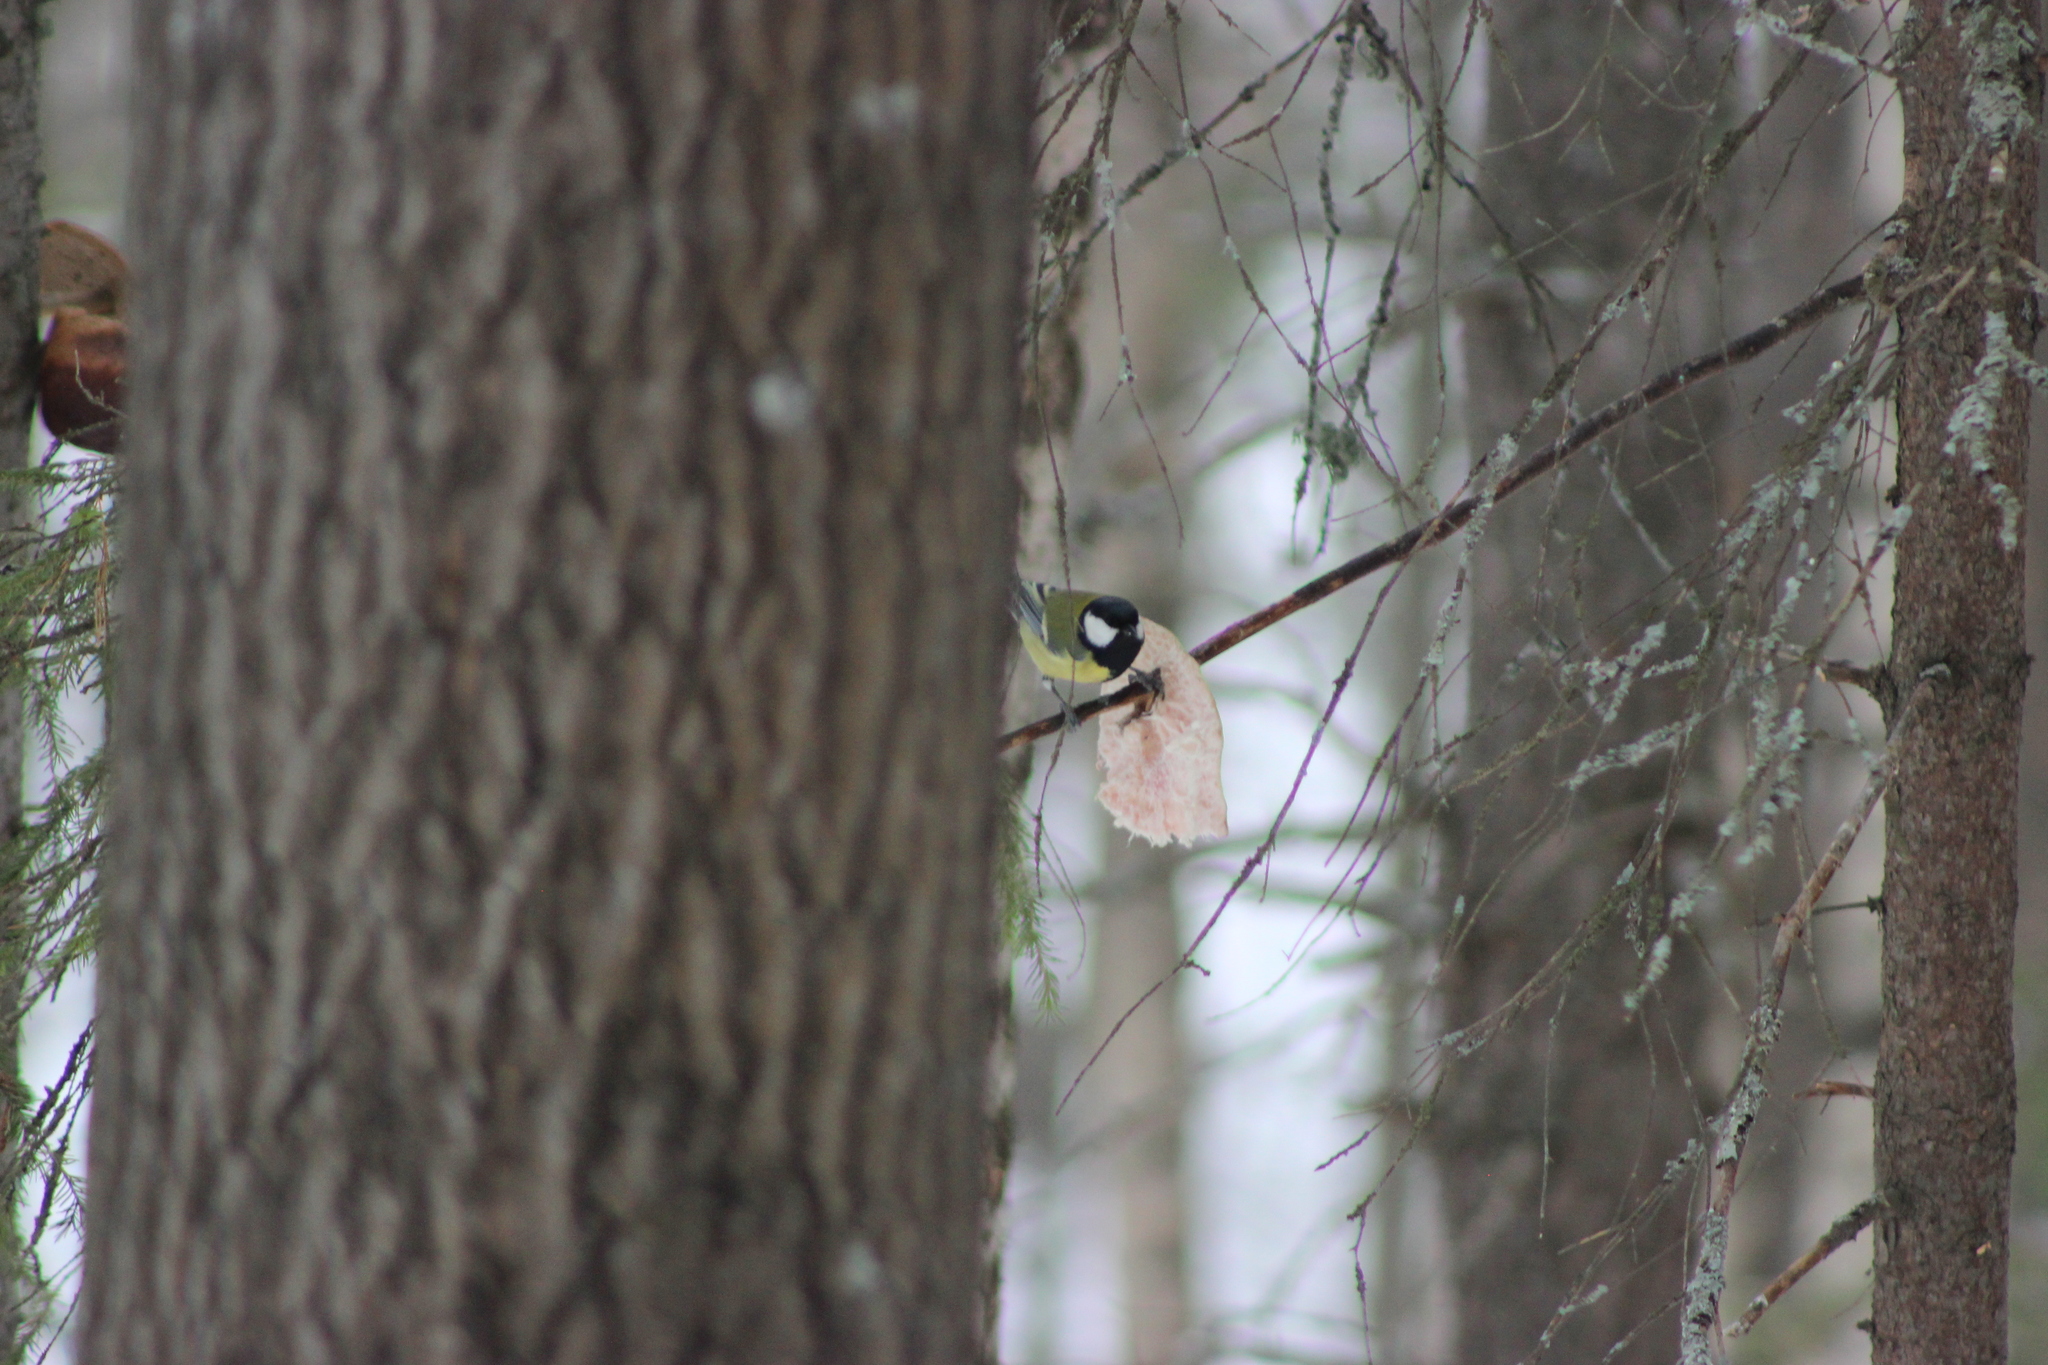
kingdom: Animalia
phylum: Chordata
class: Aves
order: Passeriformes
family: Paridae
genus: Parus
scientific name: Parus major
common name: Great tit
